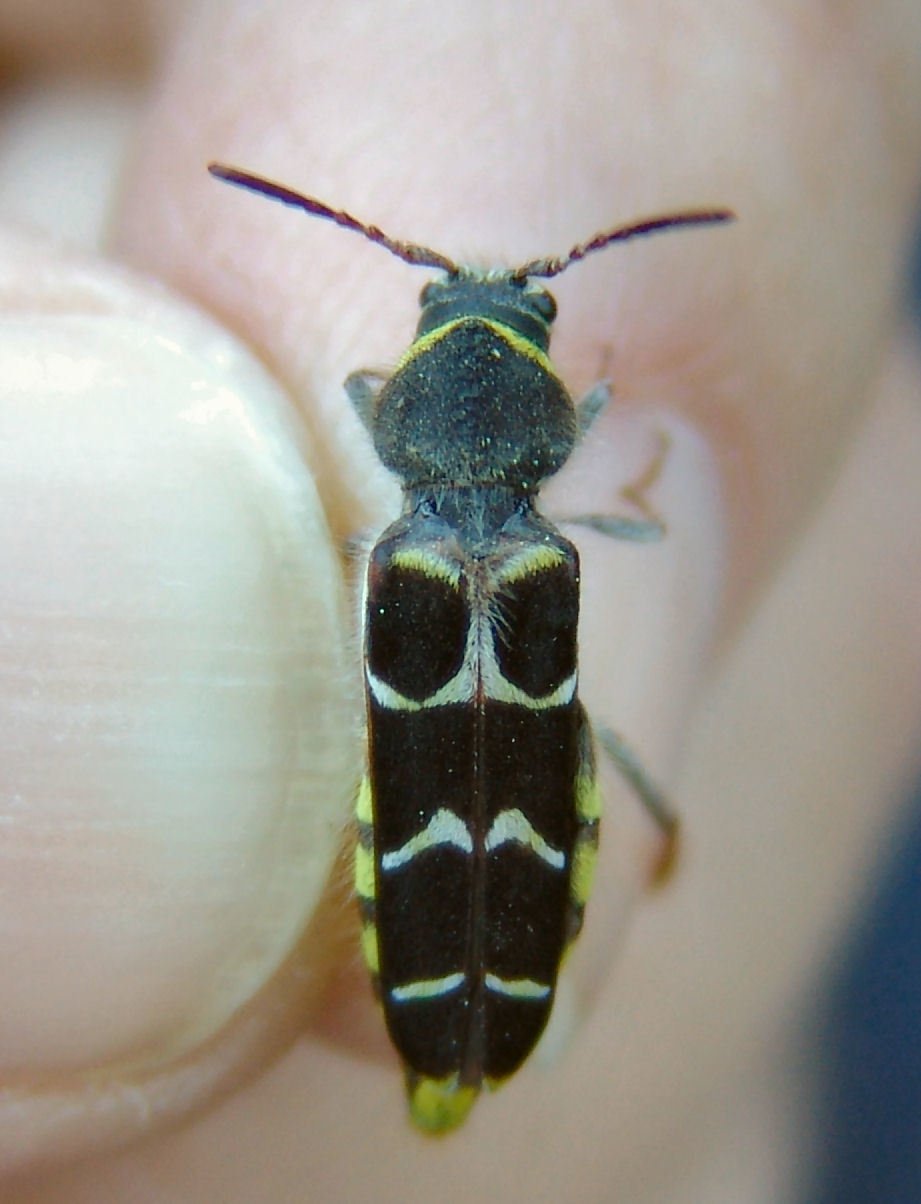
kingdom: Animalia
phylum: Arthropoda
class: Insecta
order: Coleoptera
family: Cerambycidae
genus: Neoclytus
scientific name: Neoclytus caprea
